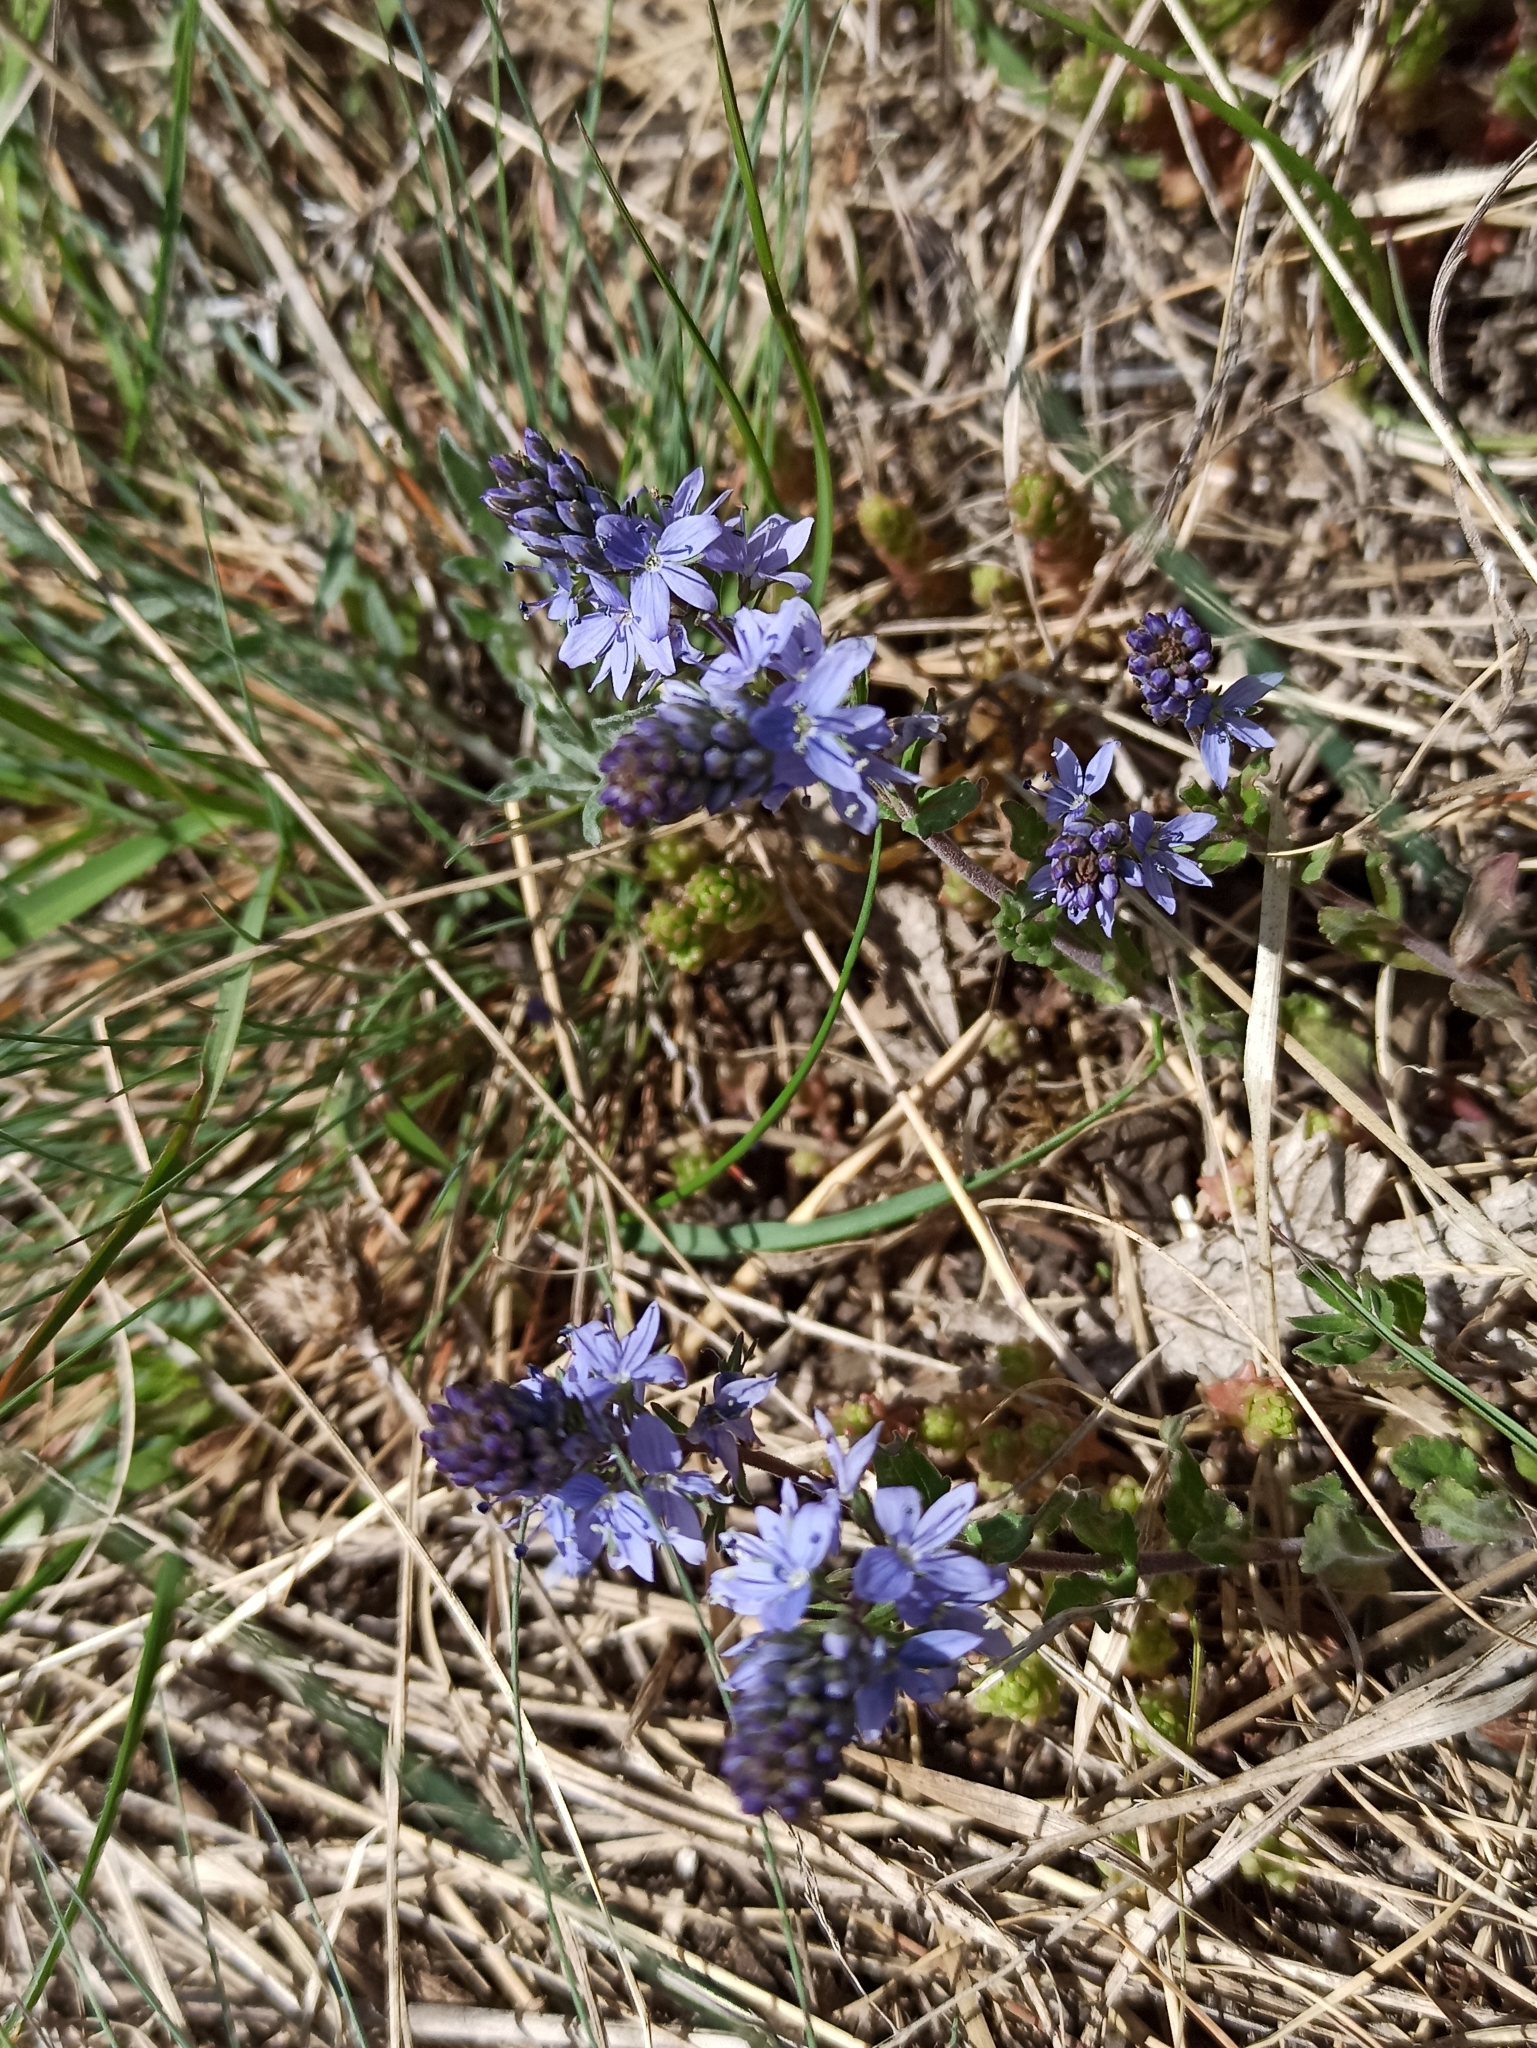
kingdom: Plantae
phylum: Tracheophyta
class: Magnoliopsida
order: Lamiales
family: Plantaginaceae
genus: Veronica
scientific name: Veronica prostrata
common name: Prostrate speedwell
